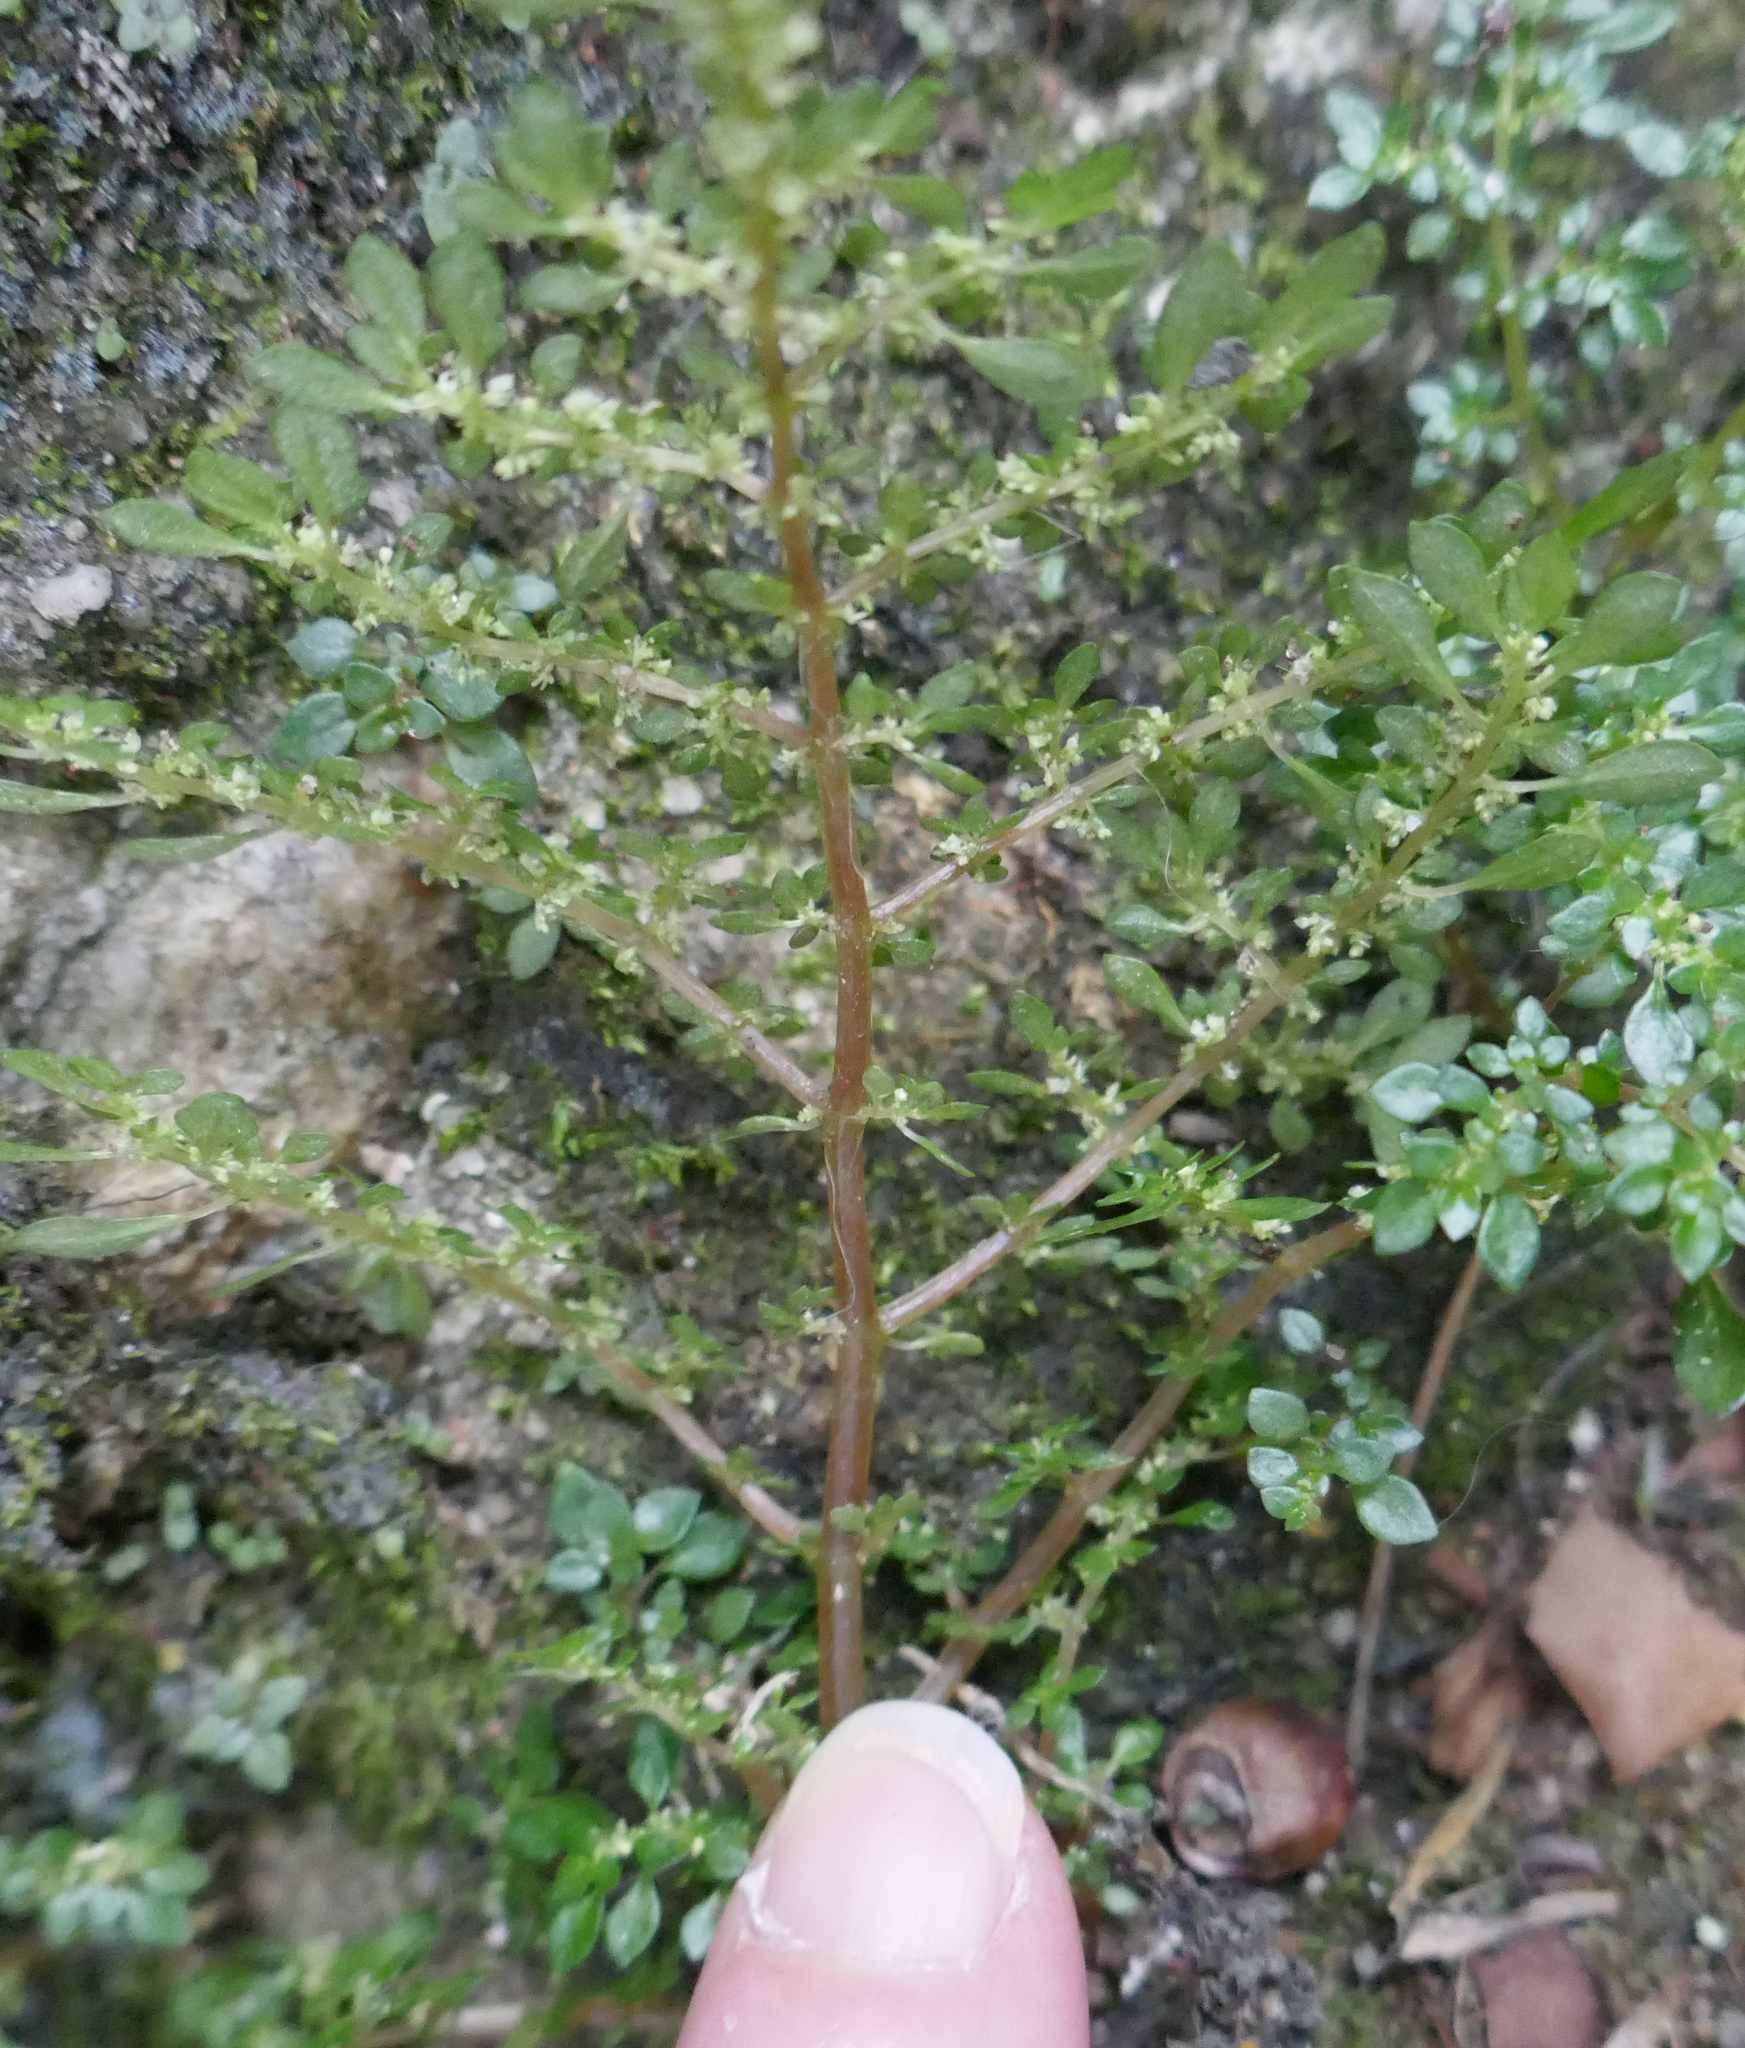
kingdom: Plantae
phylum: Tracheophyta
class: Magnoliopsida
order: Rosales
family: Urticaceae
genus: Pilea
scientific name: Pilea microphylla
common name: Artillery-plant
